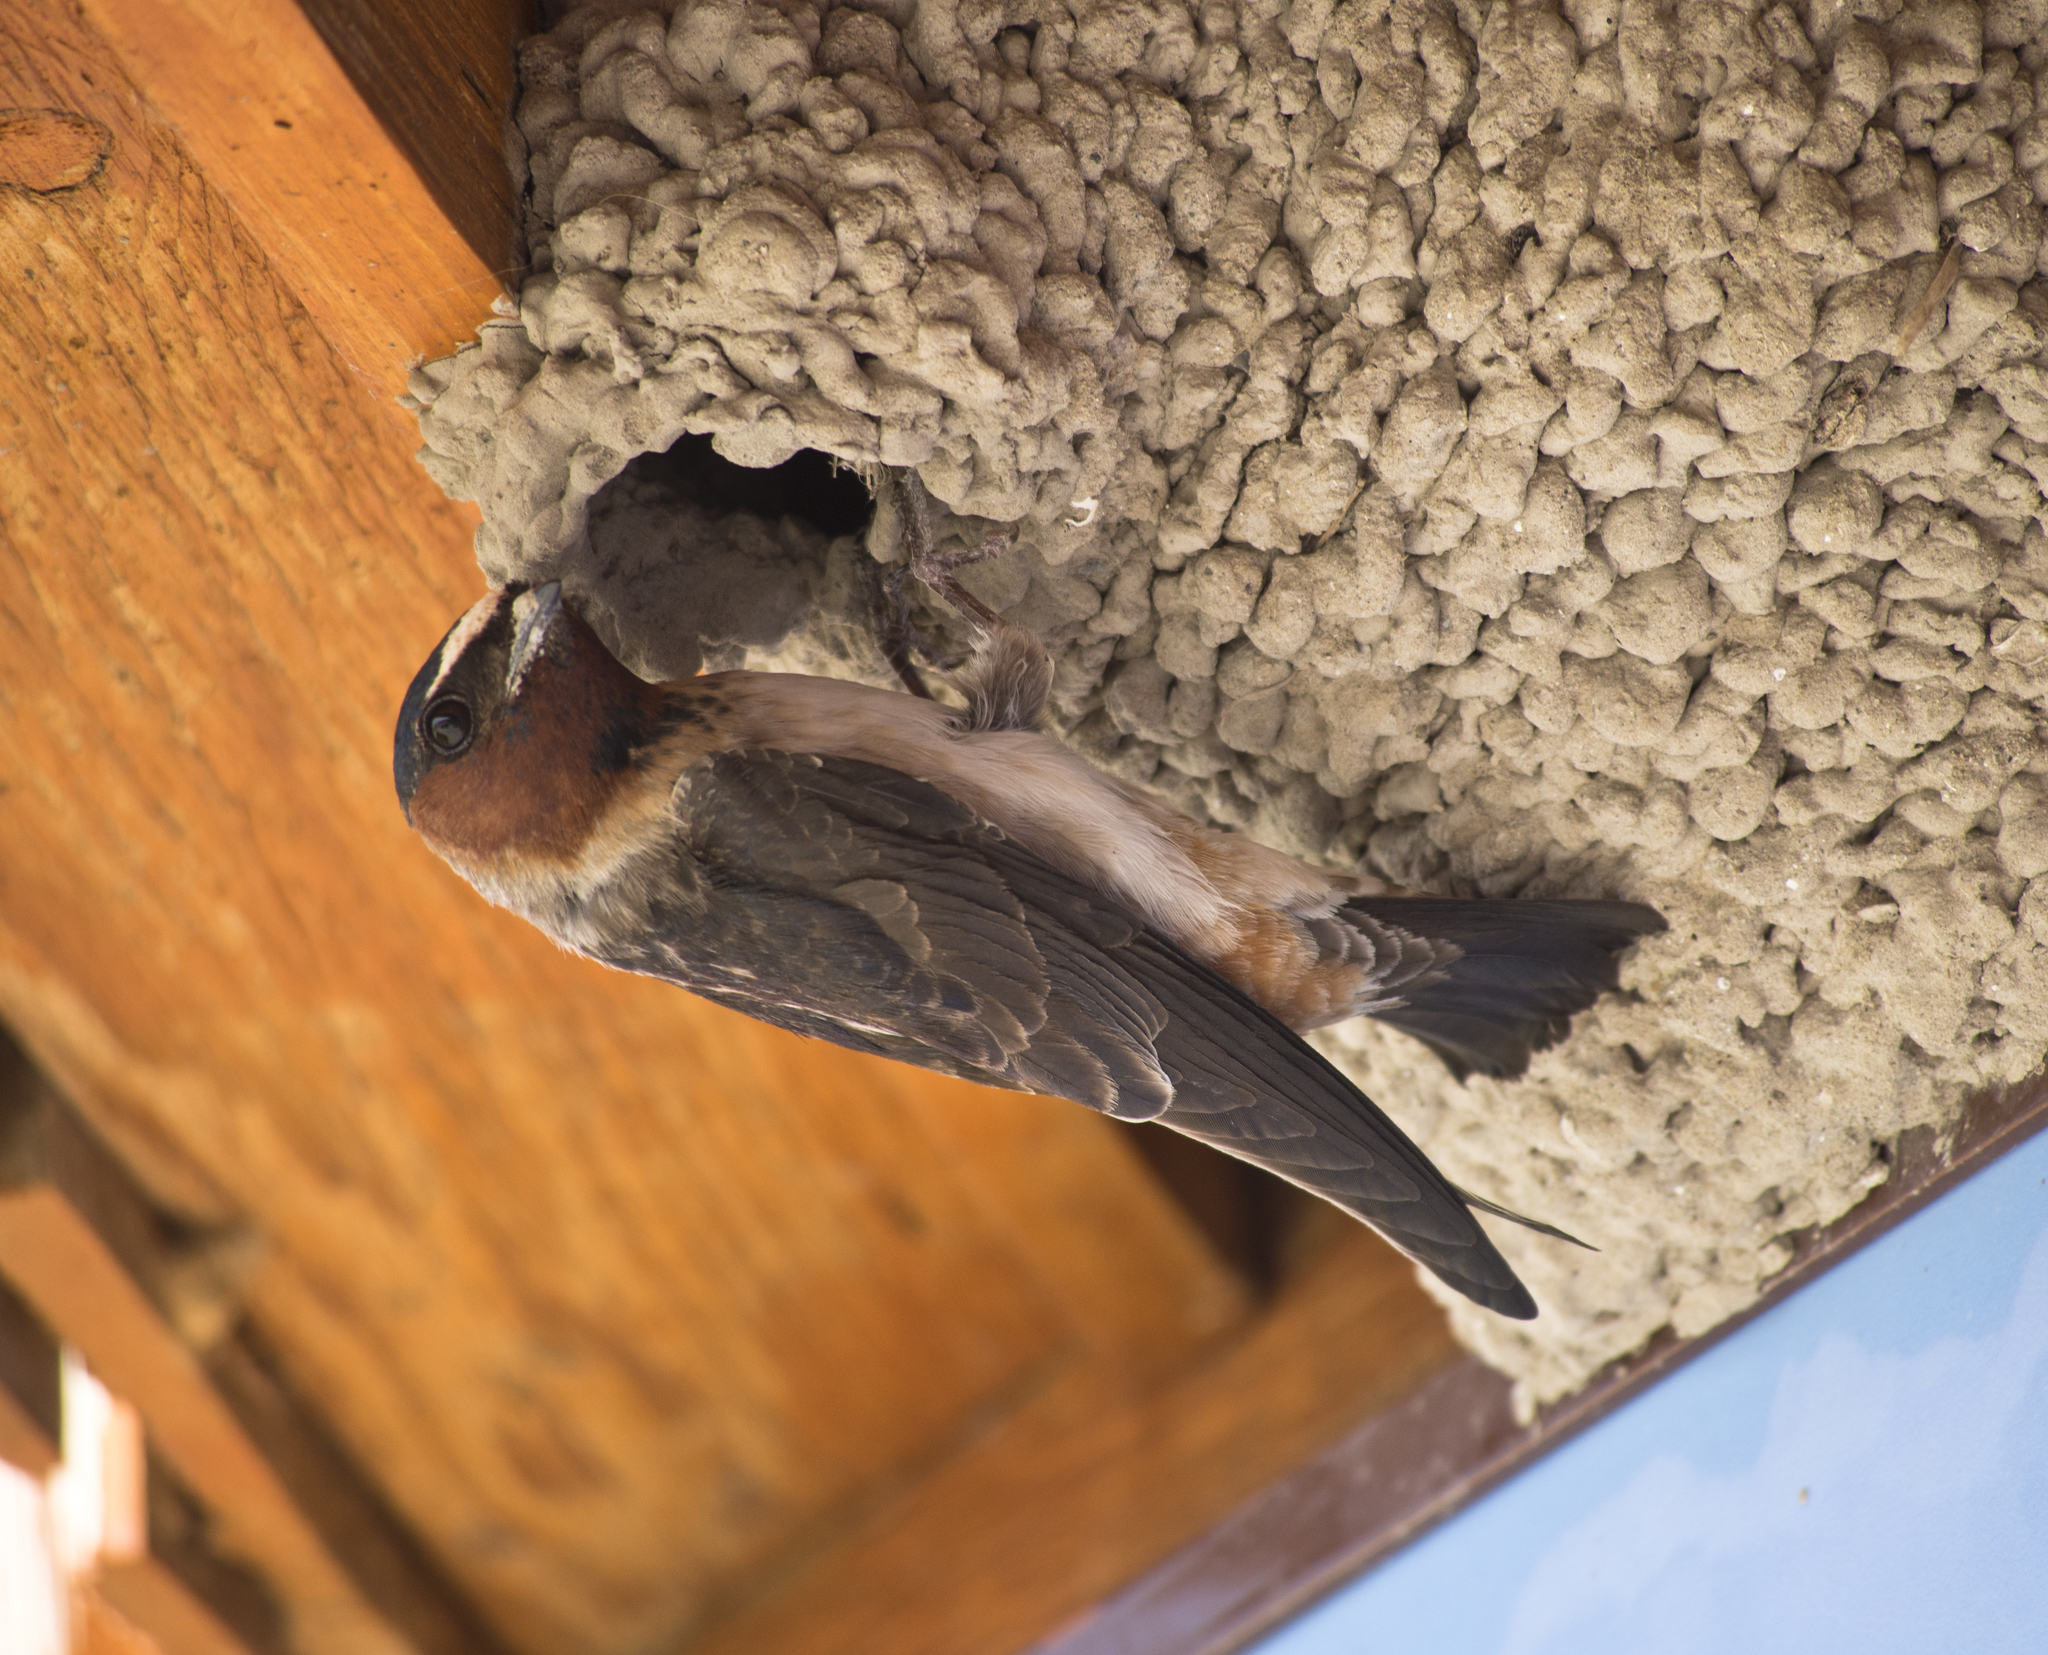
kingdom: Animalia
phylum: Chordata
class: Aves
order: Passeriformes
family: Hirundinidae
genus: Petrochelidon
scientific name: Petrochelidon pyrrhonota
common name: American cliff swallow
